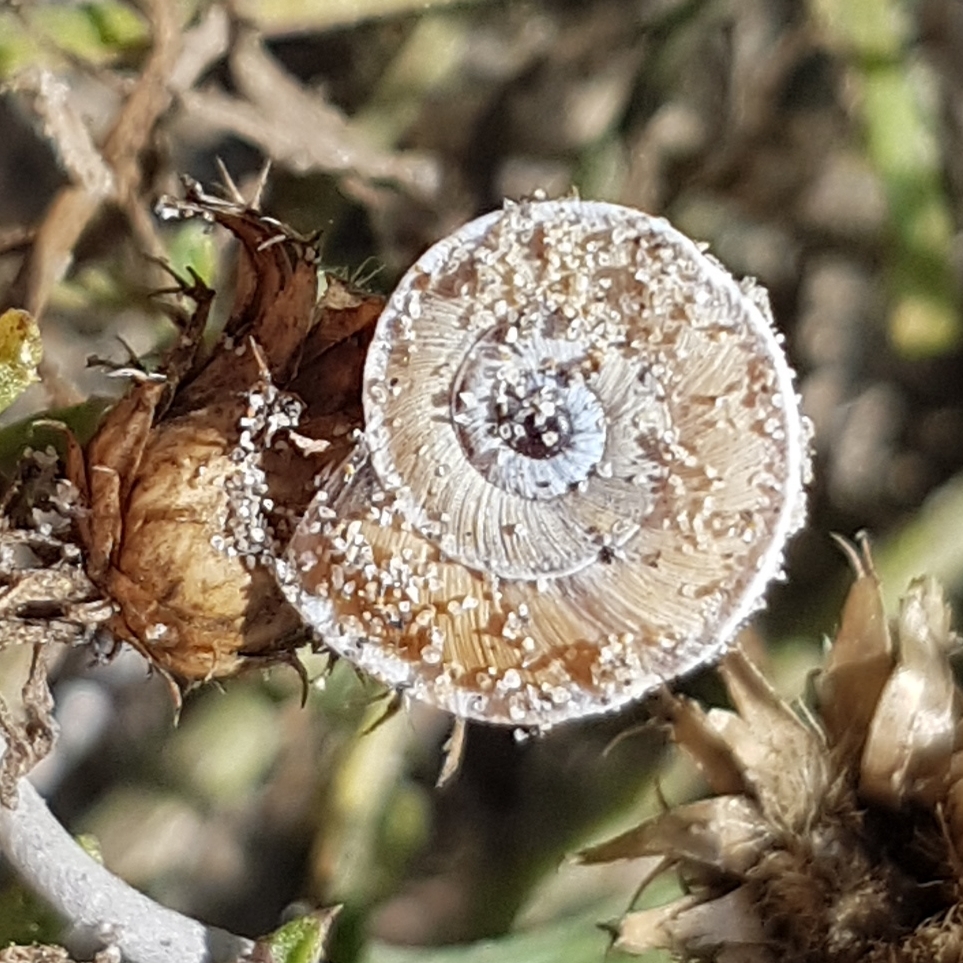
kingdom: Animalia
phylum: Mollusca
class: Gastropoda
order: Stylommatophora
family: Geomitridae
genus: Xerosecta
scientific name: Xerosecta explanata
